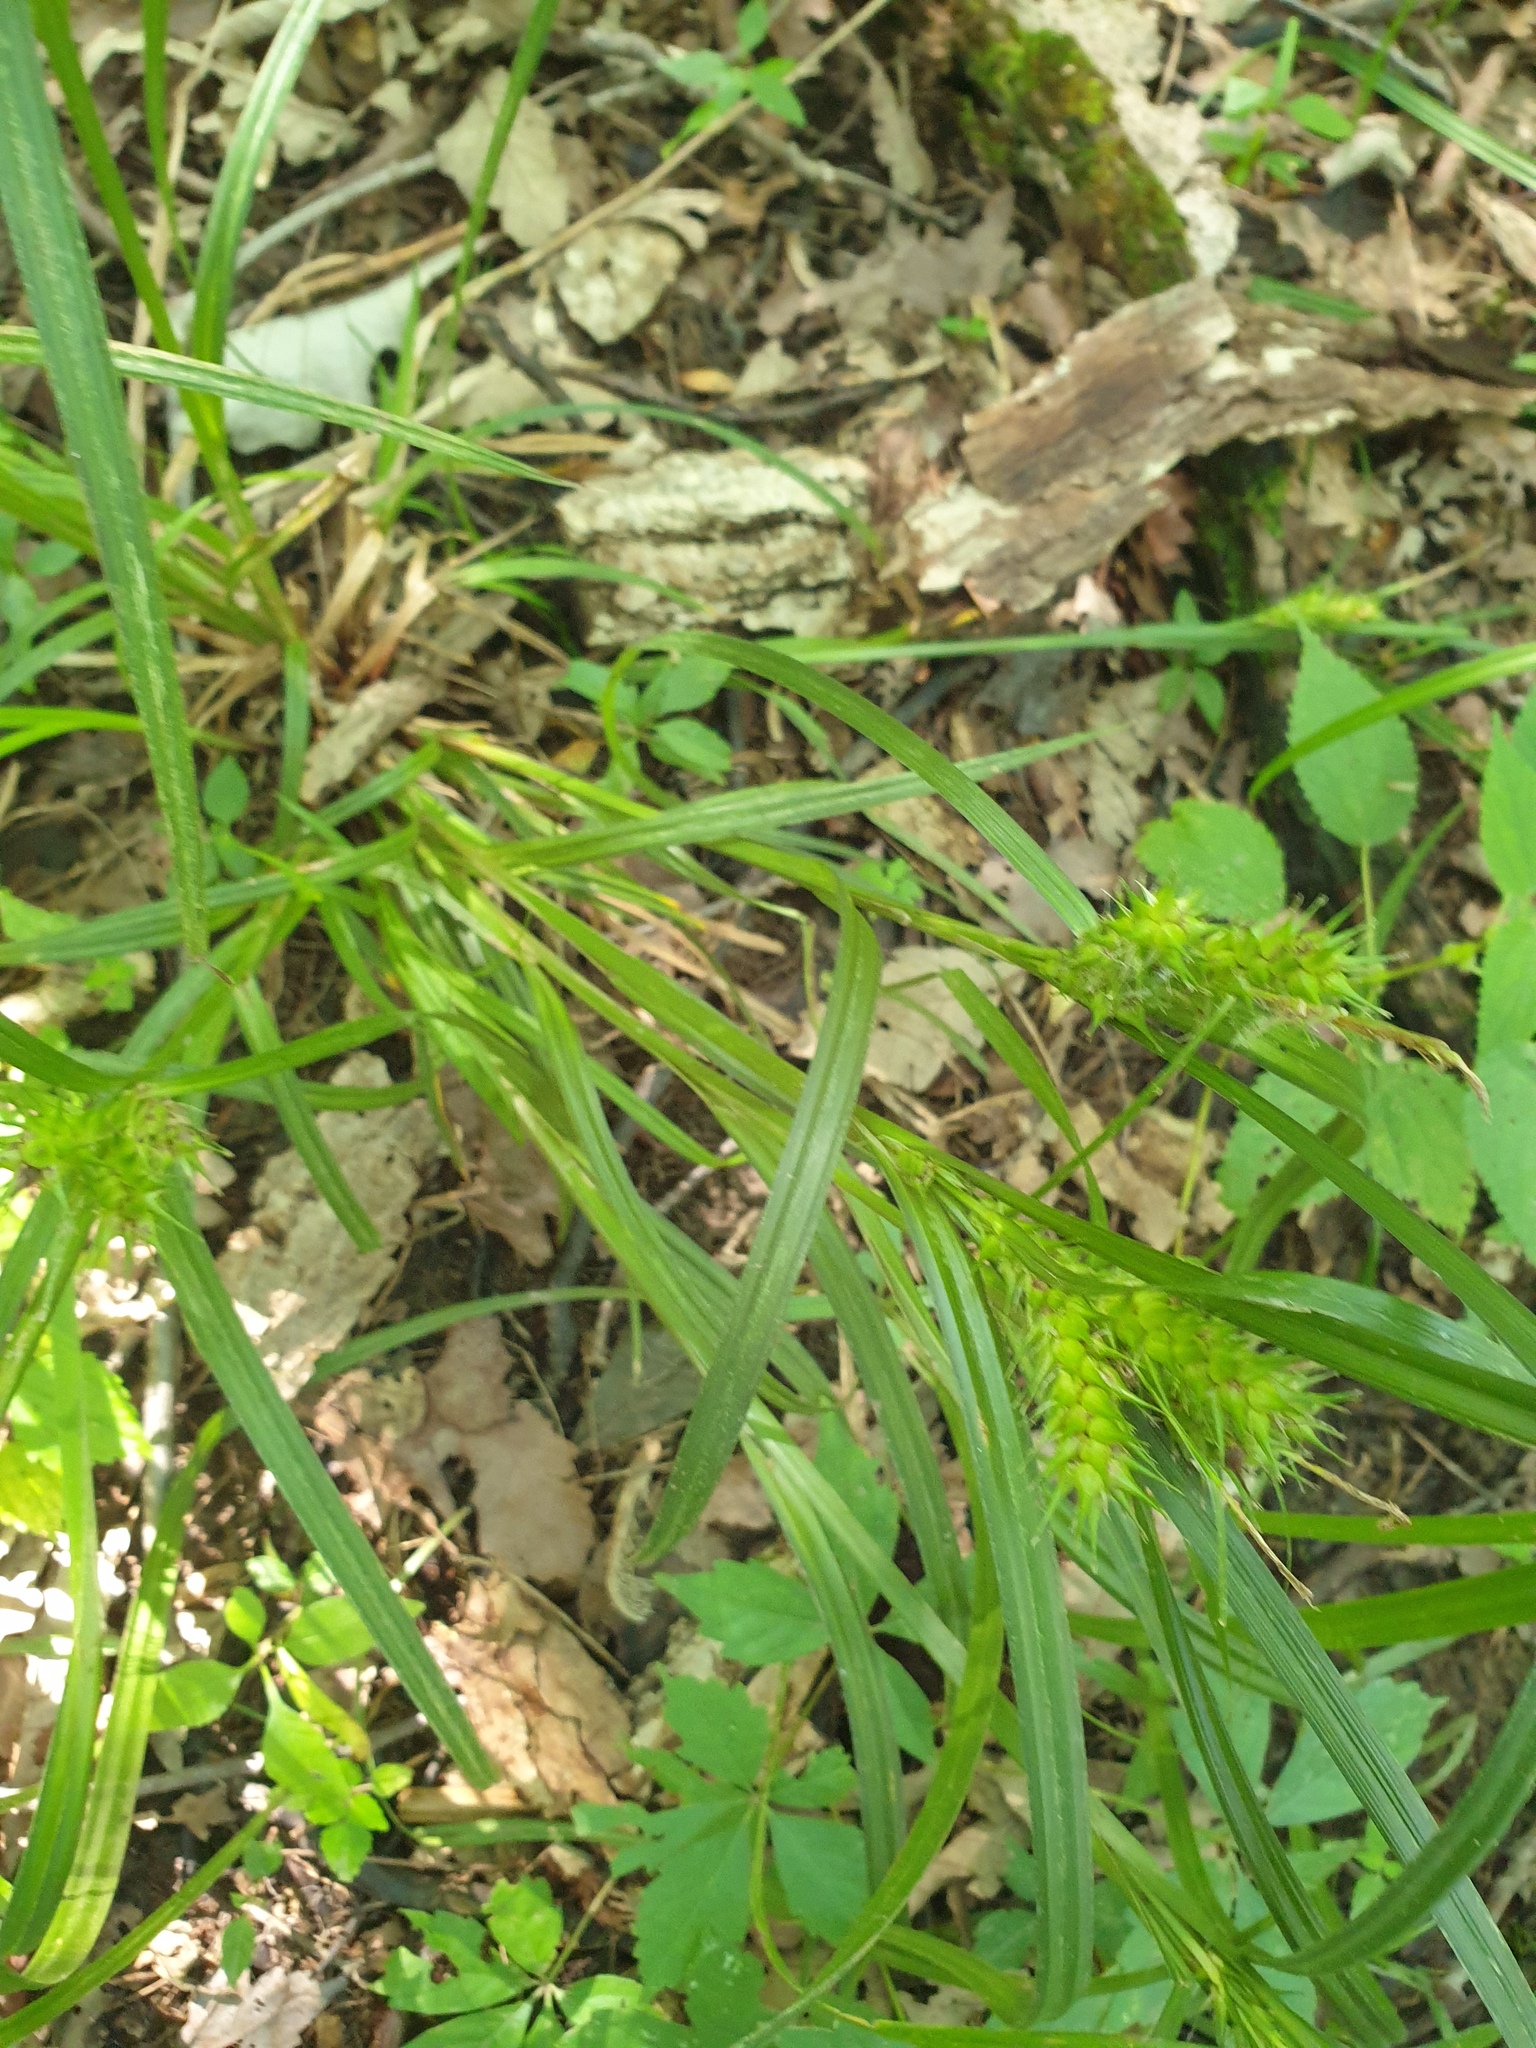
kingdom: Plantae
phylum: Tracheophyta
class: Liliopsida
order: Poales
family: Cyperaceae
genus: Carex
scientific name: Carex lupulina
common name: Hop sedge
